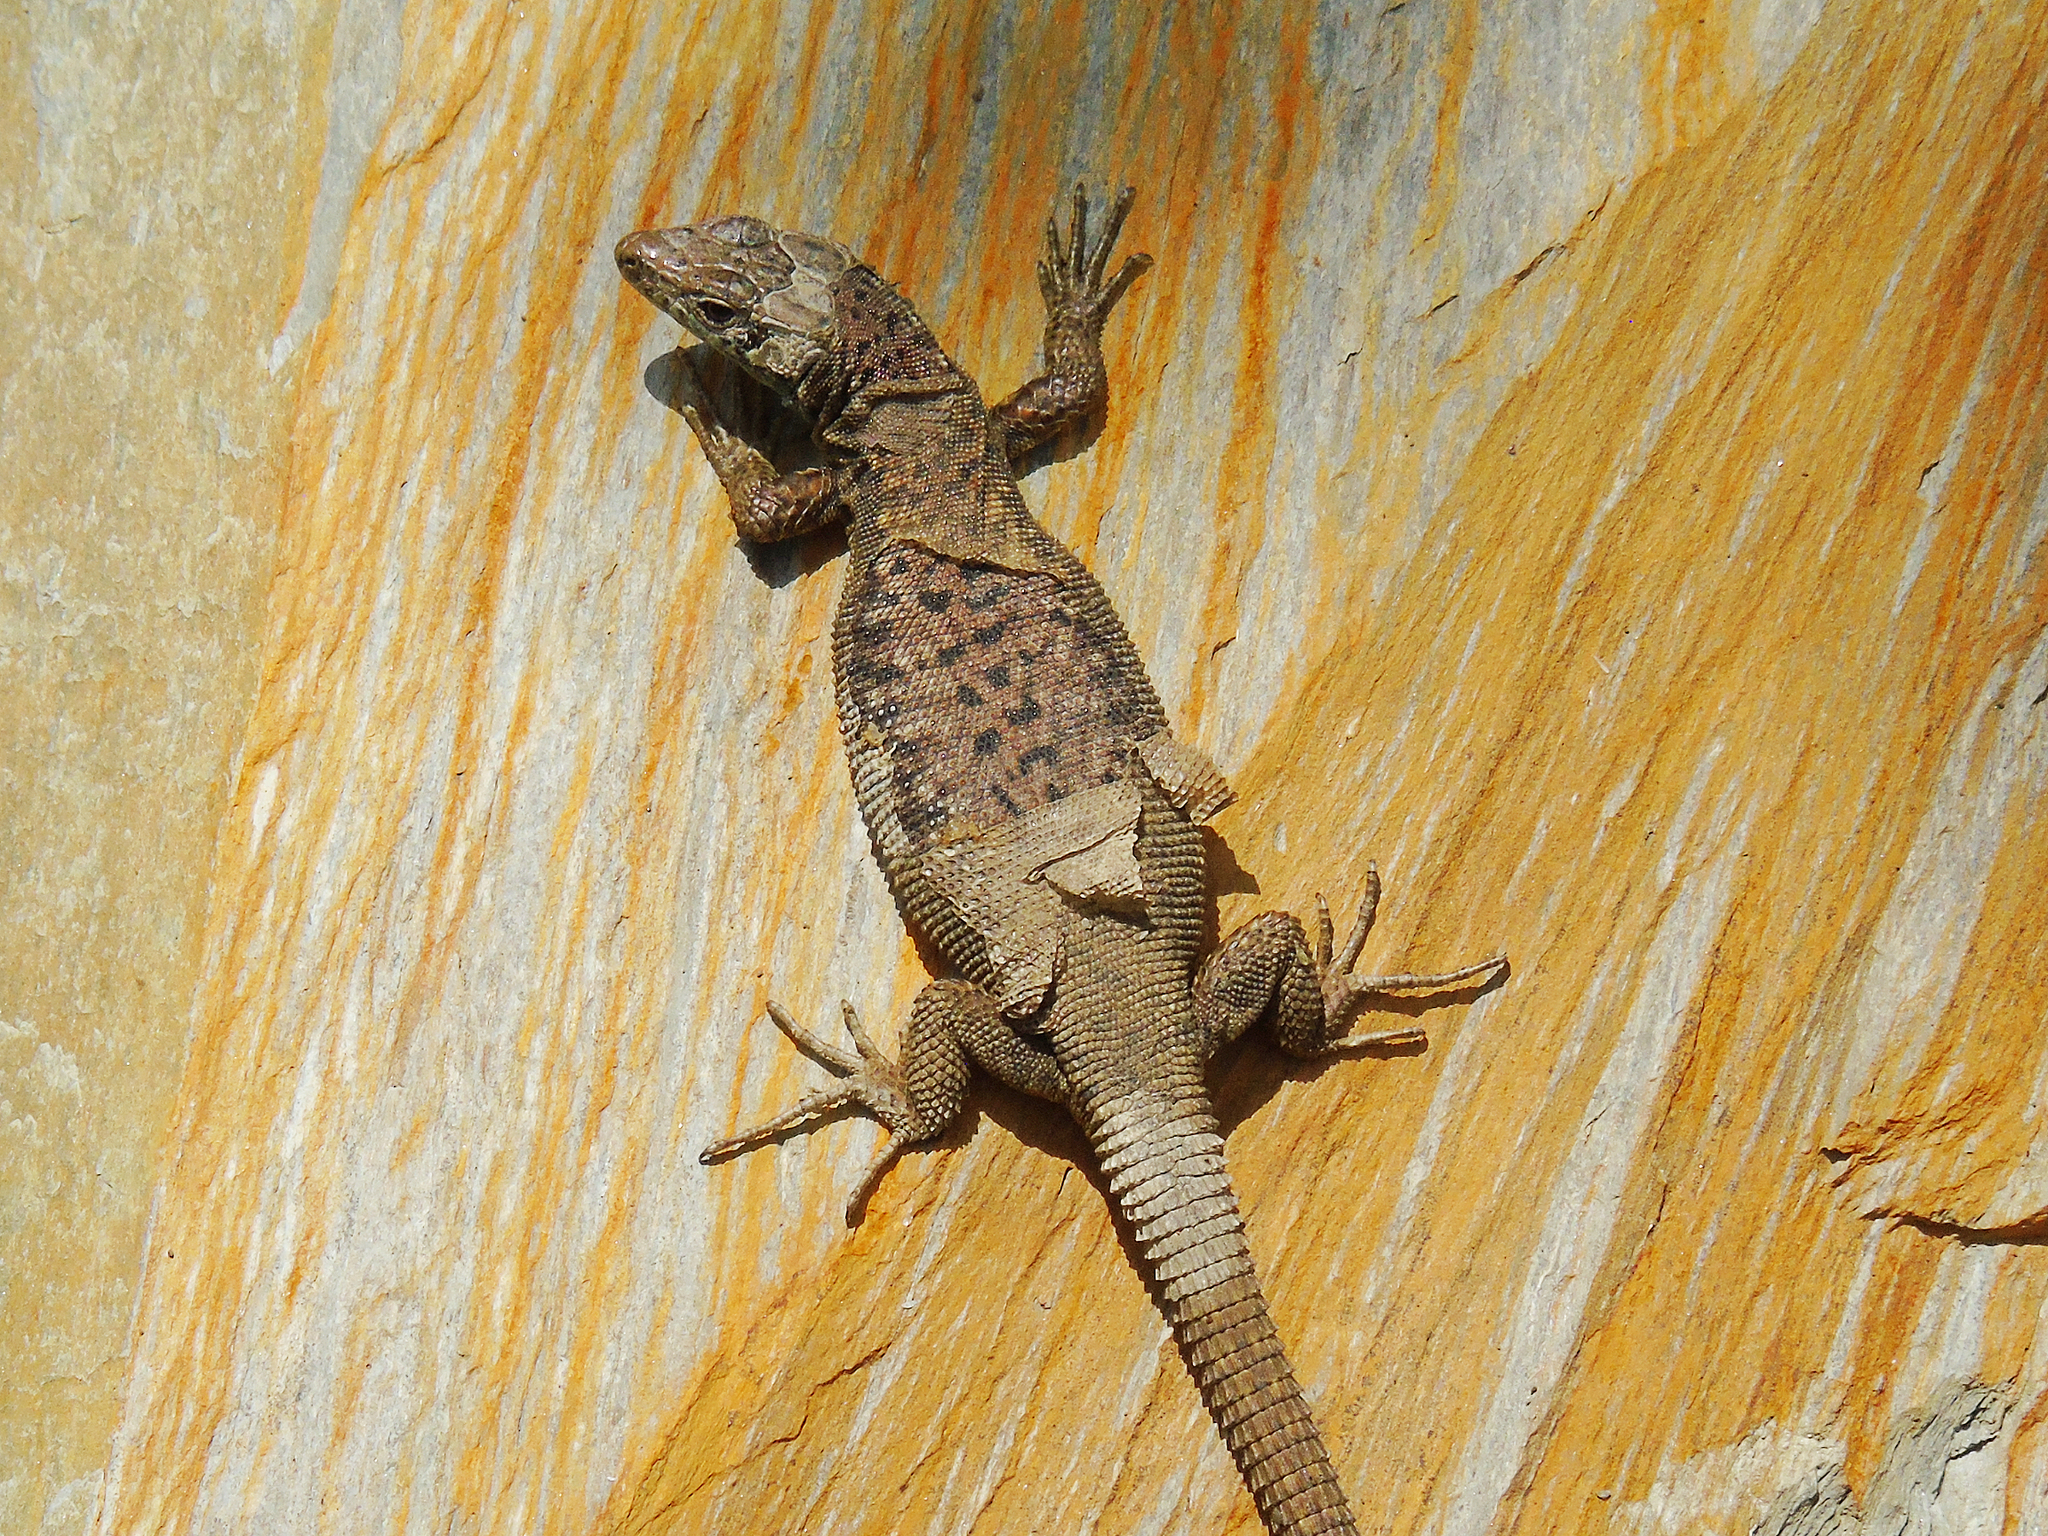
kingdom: Animalia
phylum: Chordata
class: Squamata
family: Lacertidae
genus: Darevskia
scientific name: Darevskia rudis
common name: Spiny-tailed lizard
